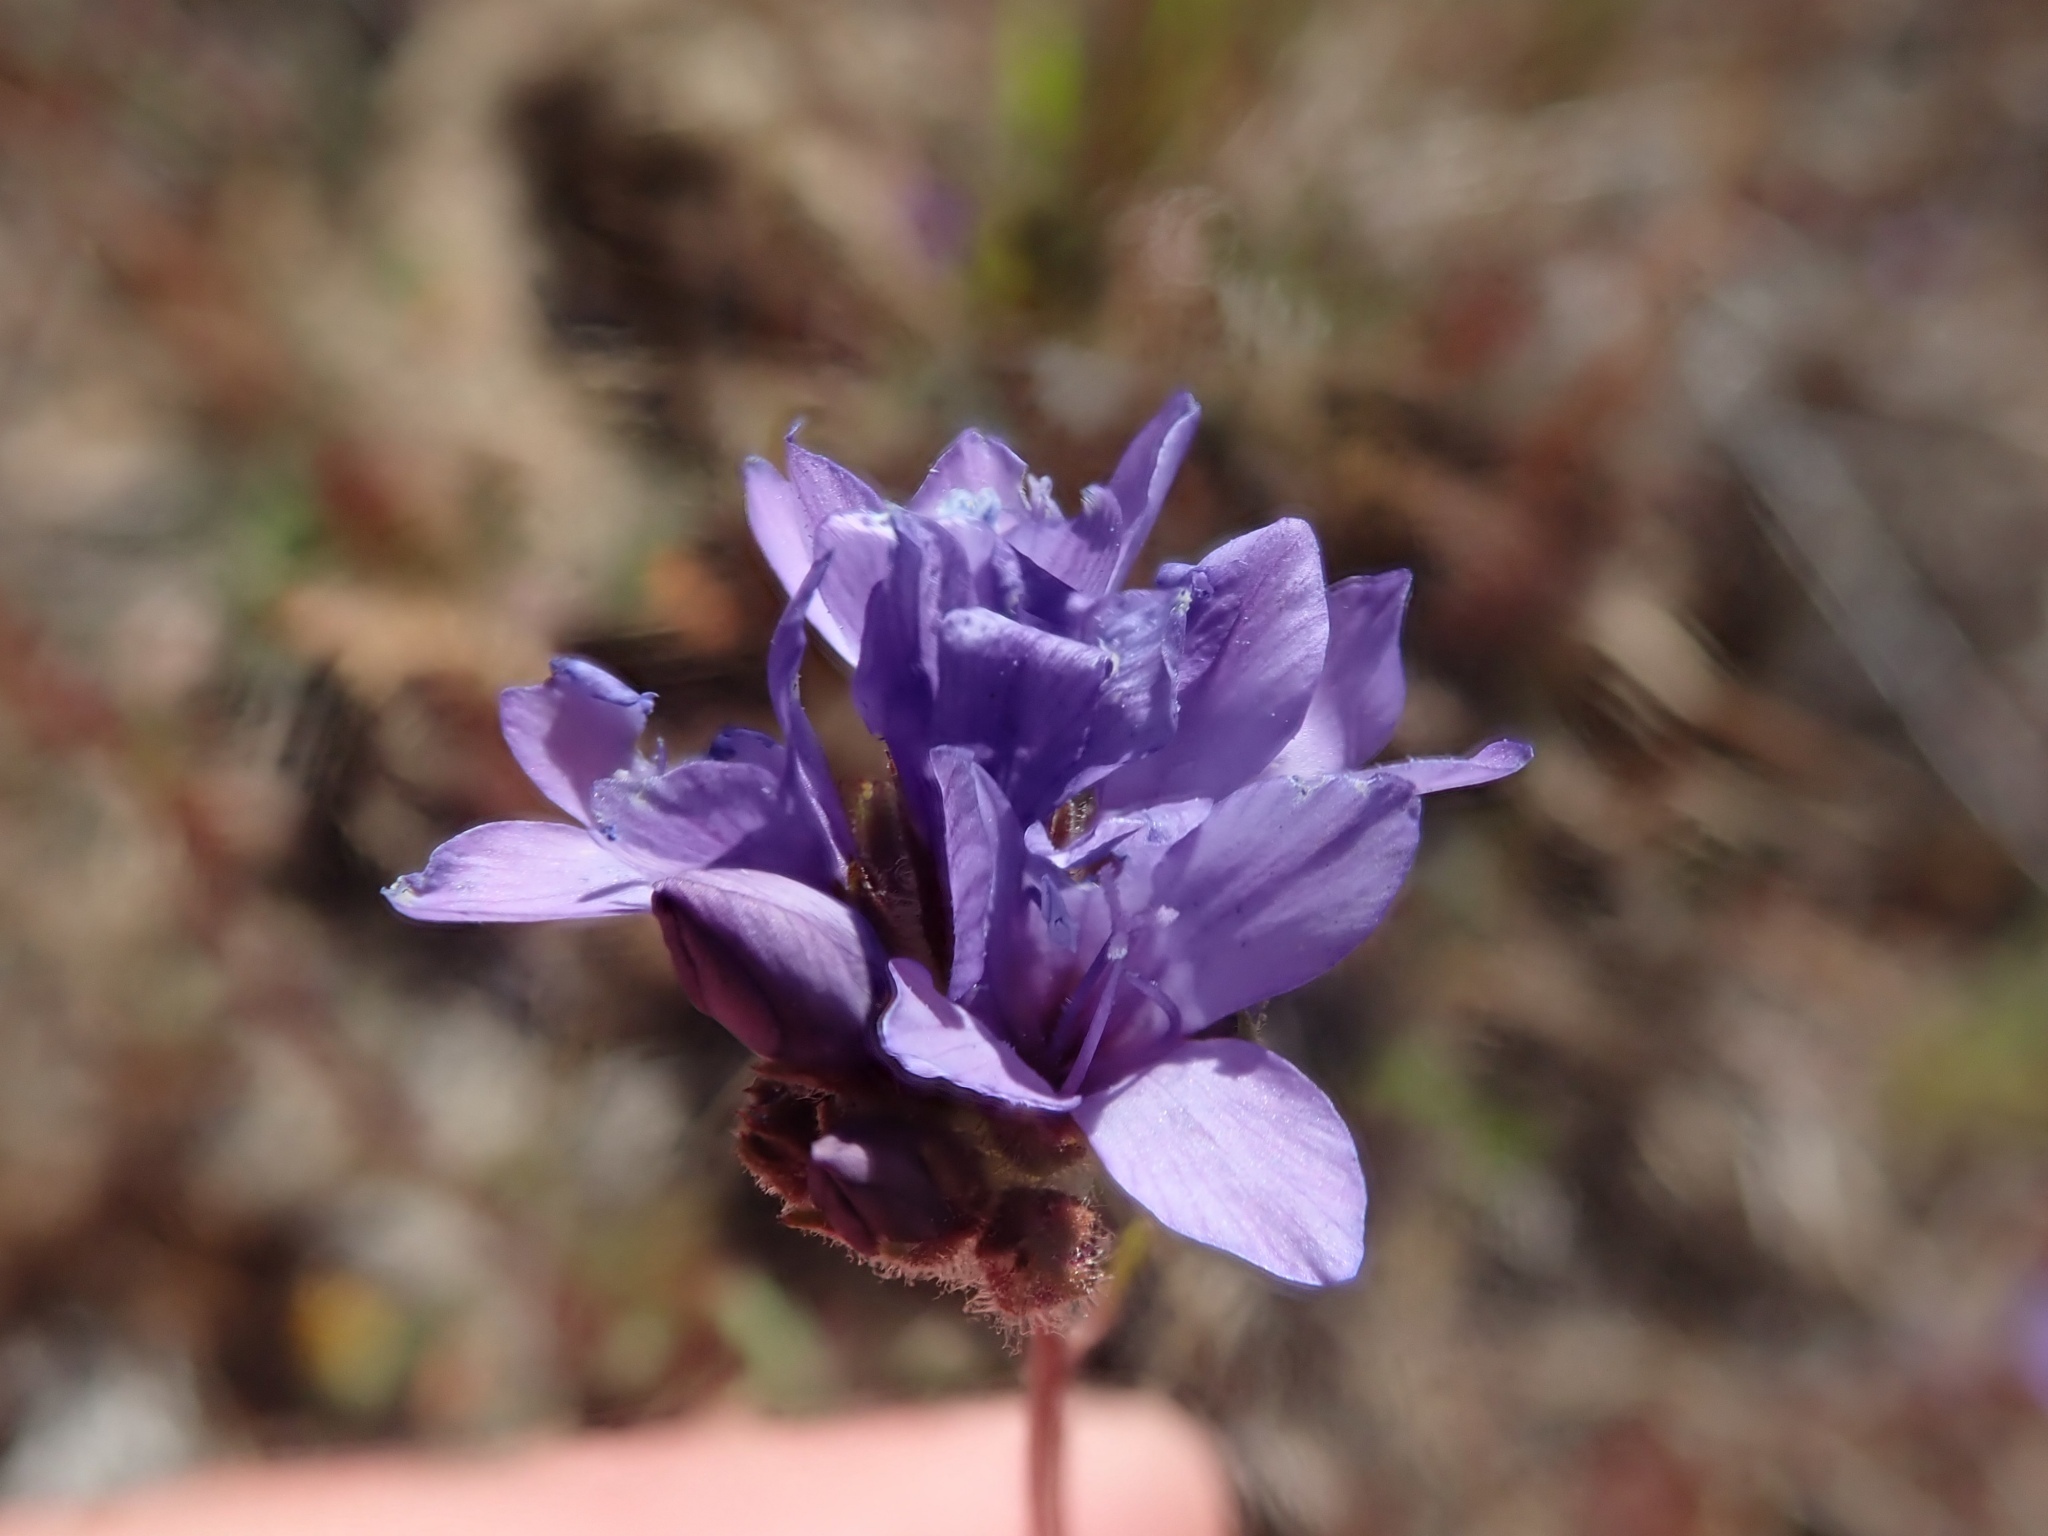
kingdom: Plantae
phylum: Tracheophyta
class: Magnoliopsida
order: Ericales
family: Polemoniaceae
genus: Gilia
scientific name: Gilia achilleifolia
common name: California gily-flower
